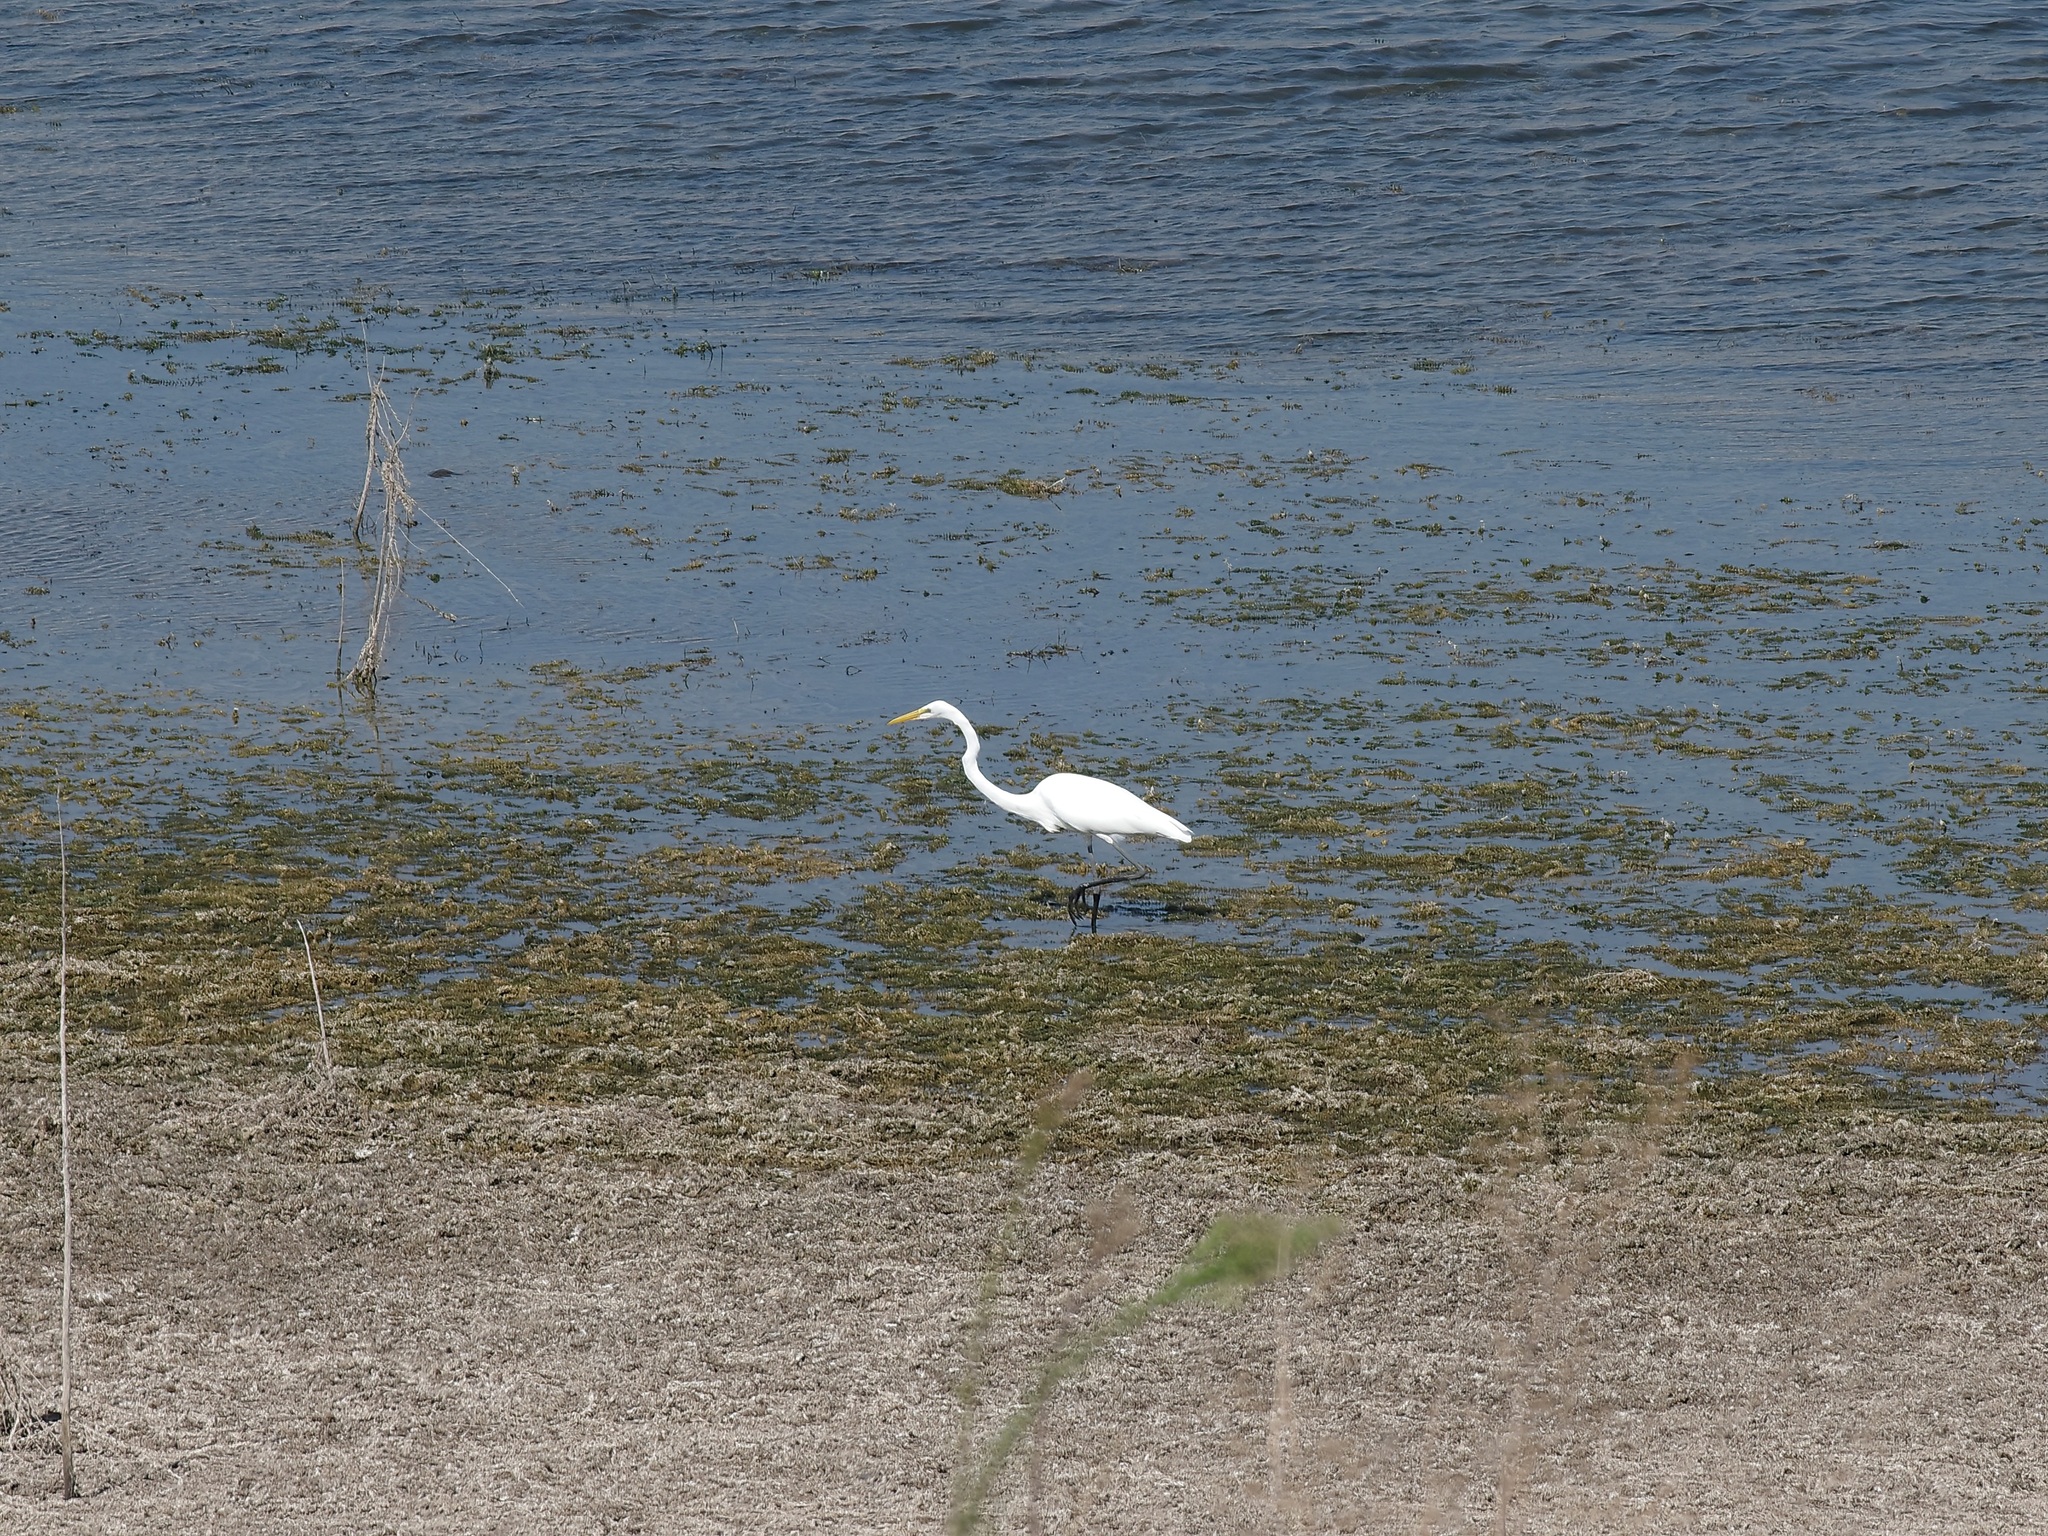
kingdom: Animalia
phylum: Chordata
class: Aves
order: Pelecaniformes
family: Ardeidae
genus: Ardea
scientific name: Ardea alba
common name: Great egret
